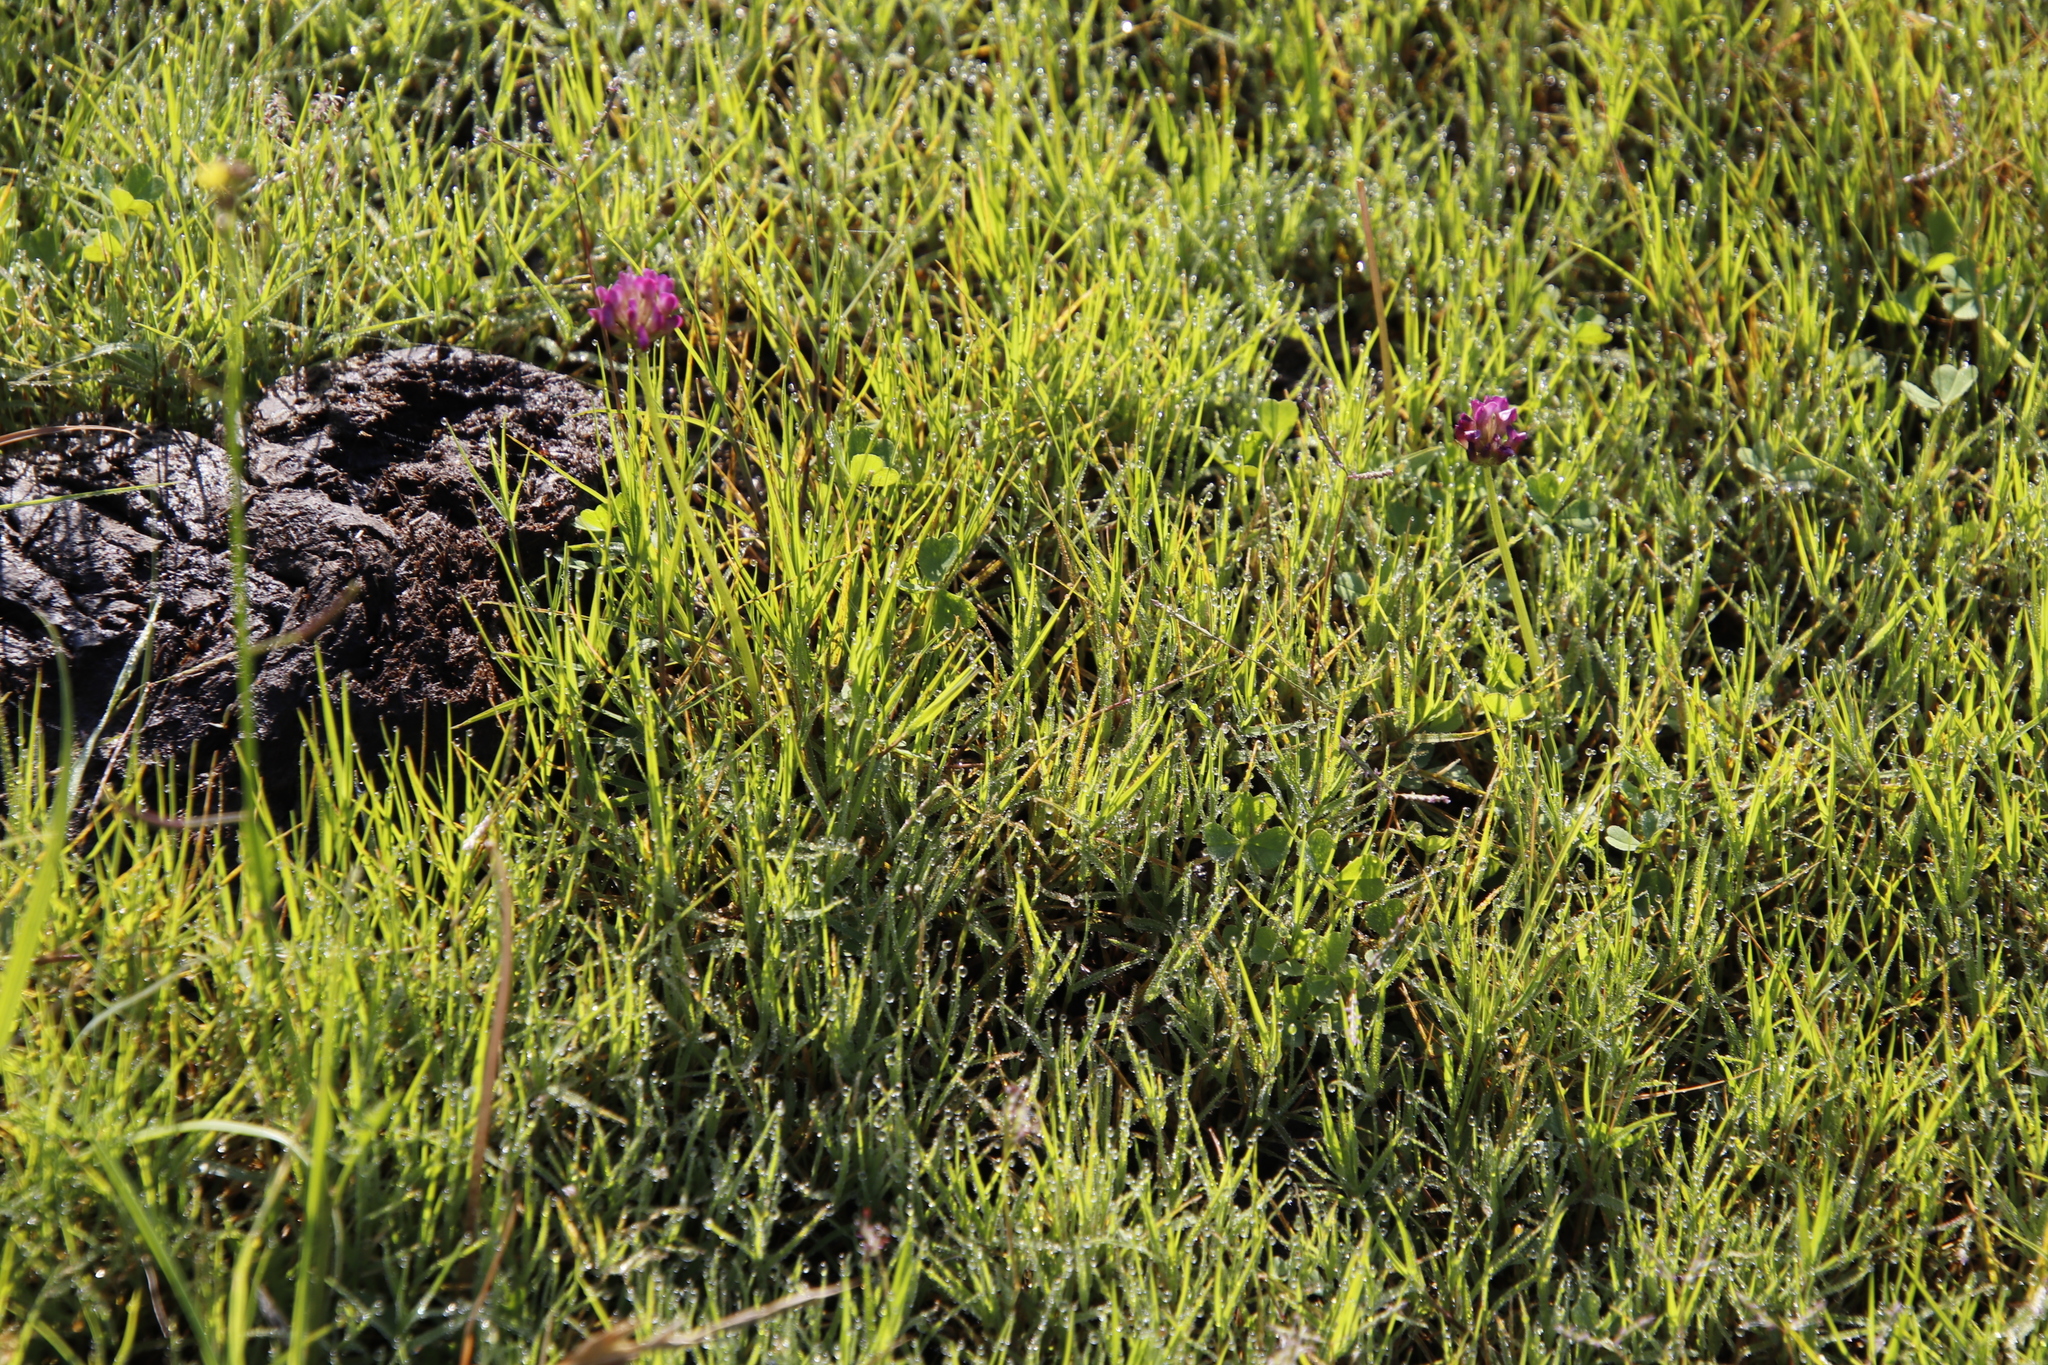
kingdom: Plantae
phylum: Tracheophyta
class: Magnoliopsida
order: Fabales
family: Fabaceae
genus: Trifolium
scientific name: Trifolium burchellianum
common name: Burchell's clover
